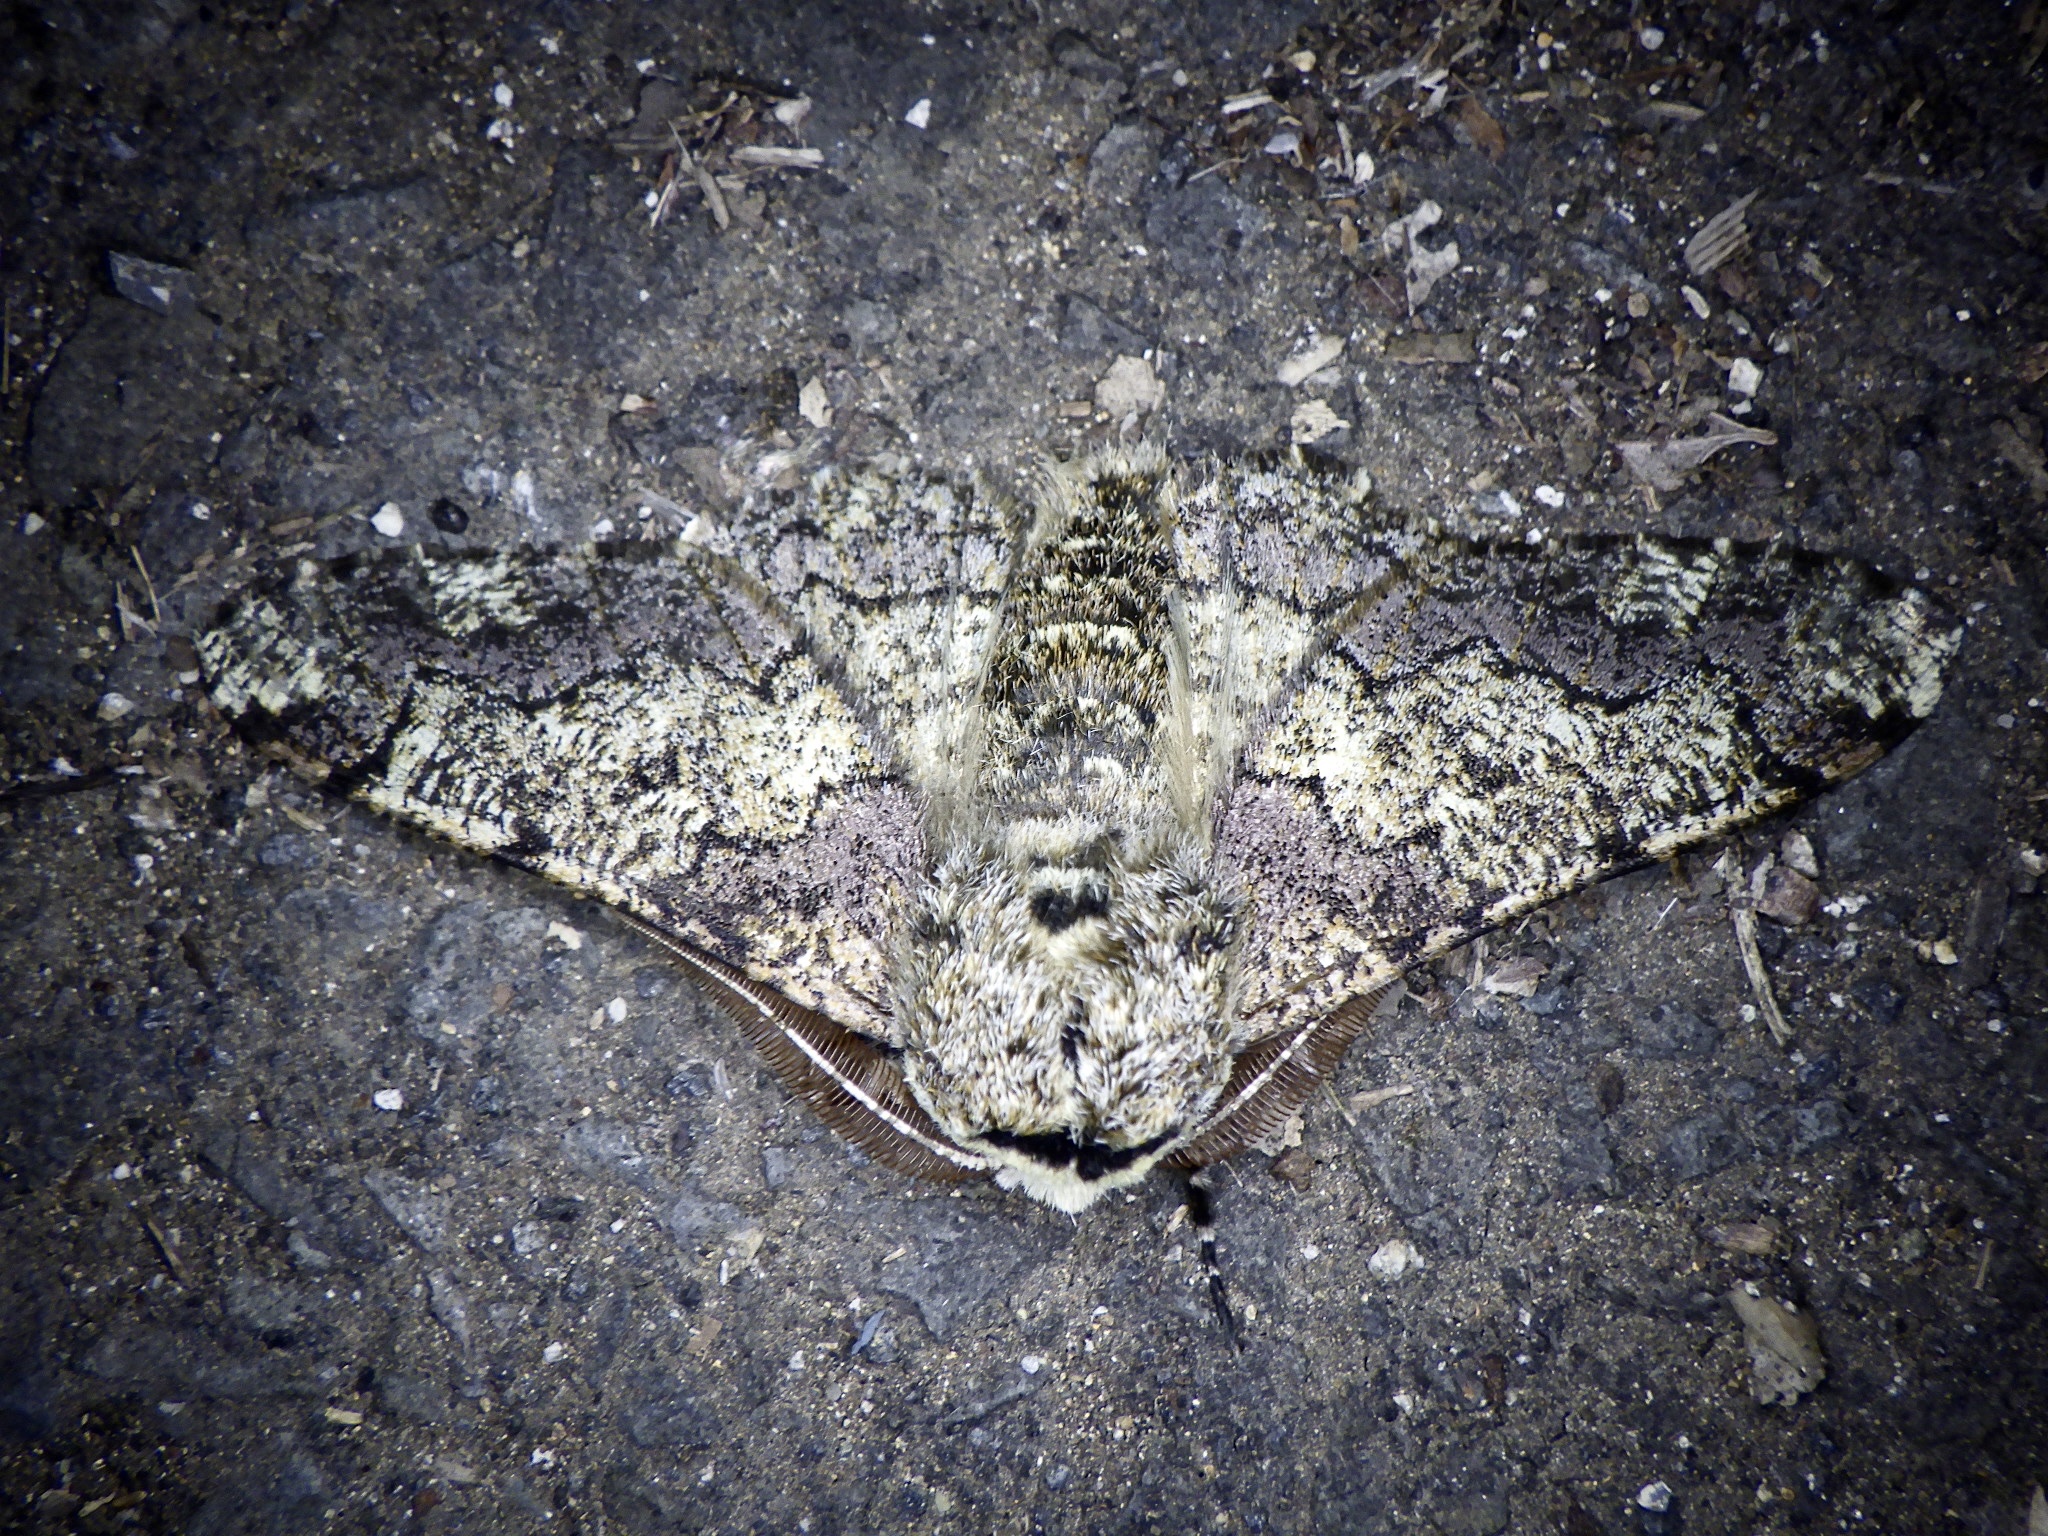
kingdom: Animalia
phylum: Arthropoda
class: Insecta
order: Lepidoptera
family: Geometridae
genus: Biston
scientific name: Biston robustum
